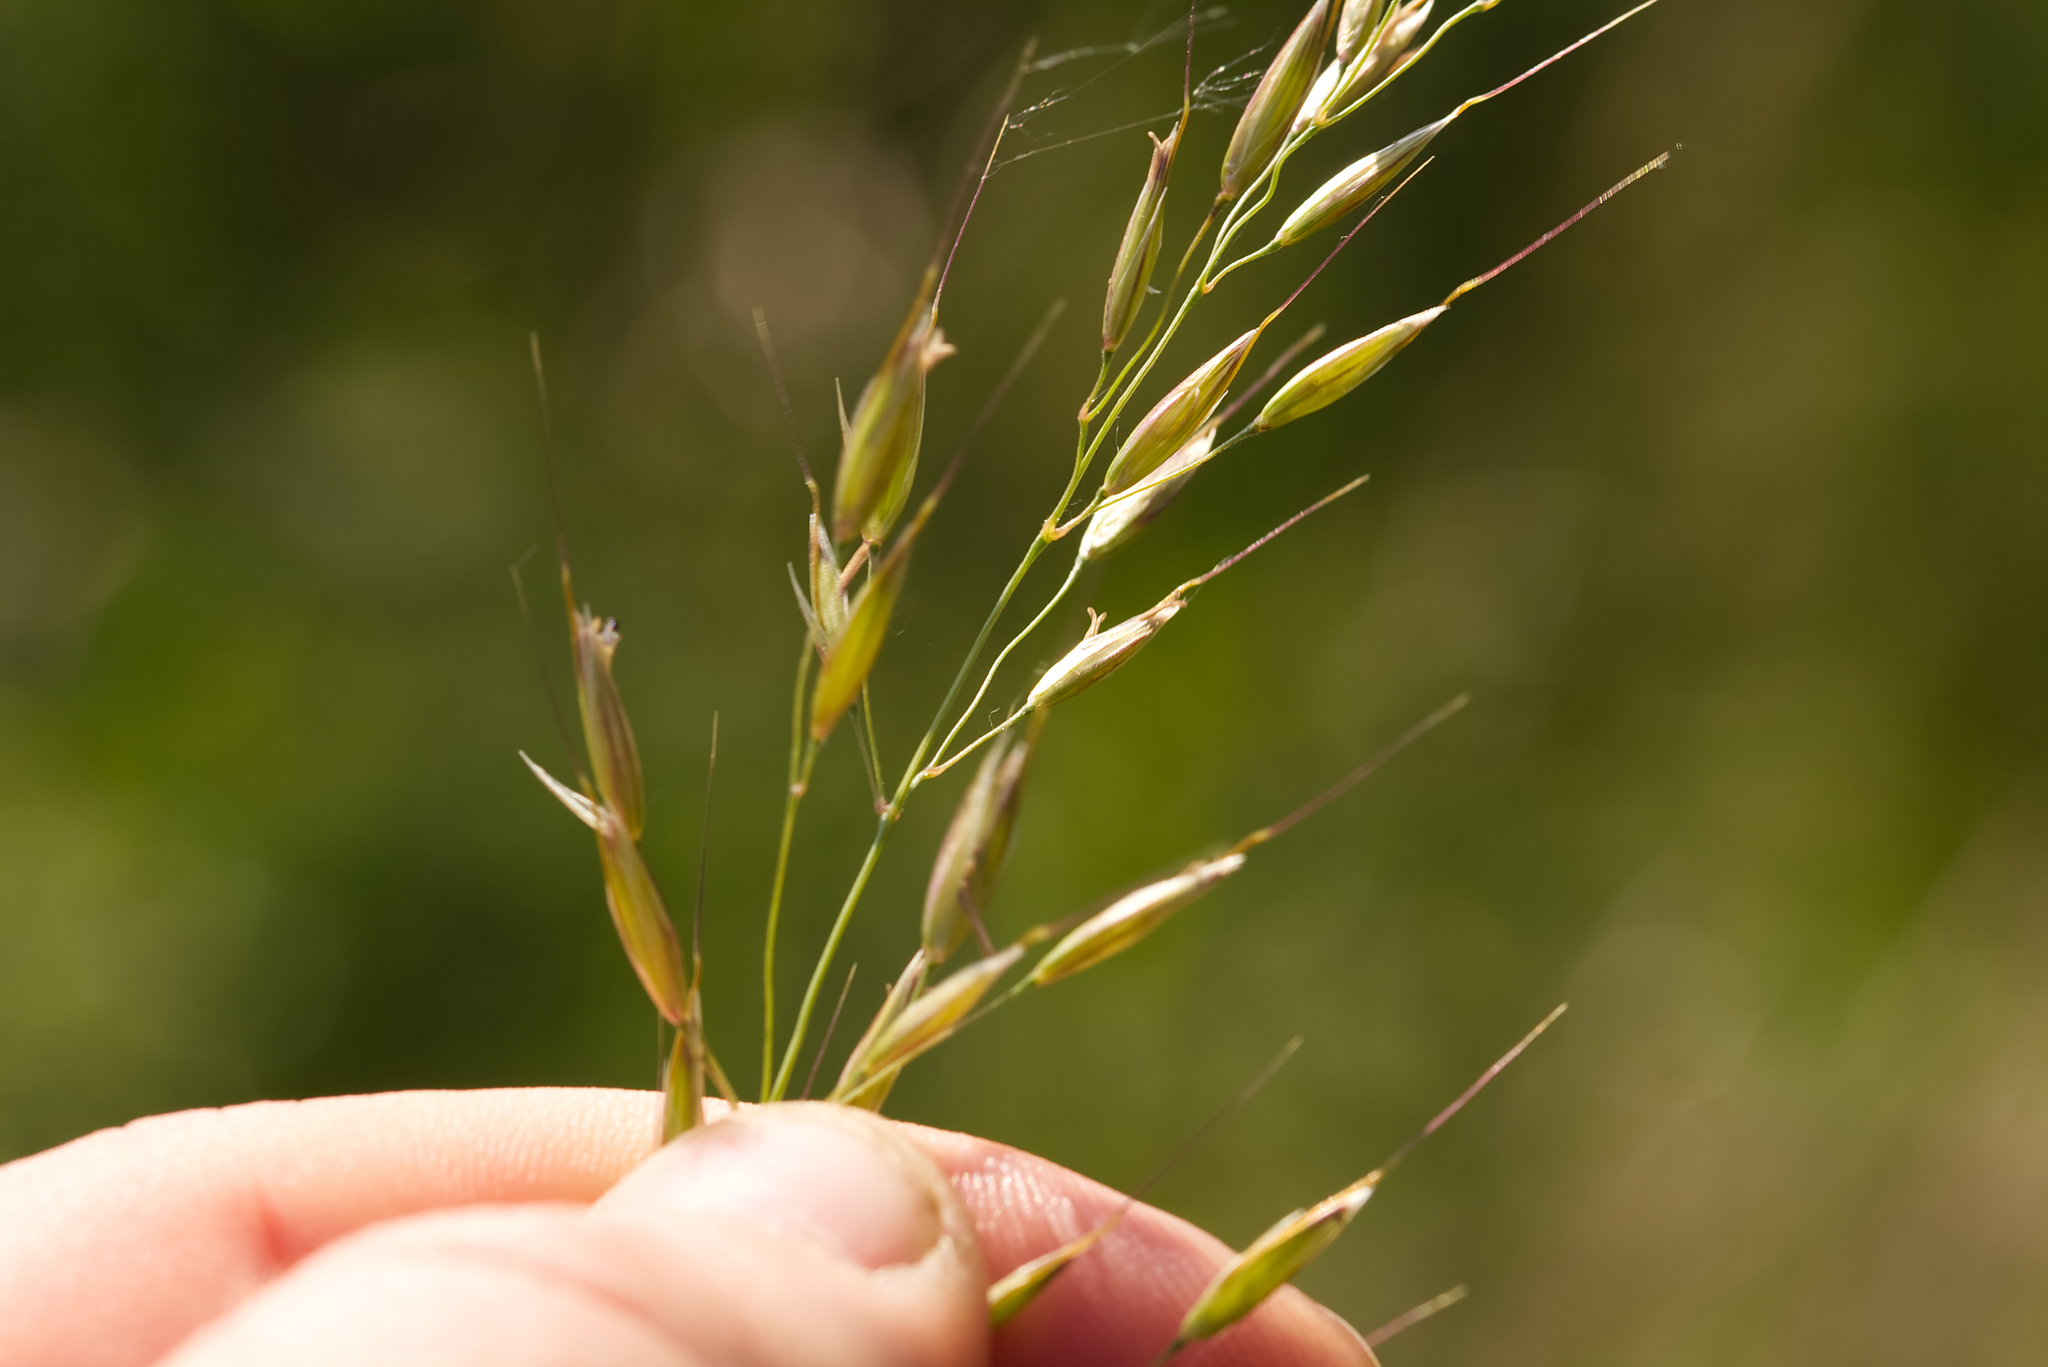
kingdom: Plantae
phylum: Tracheophyta
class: Liliopsida
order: Poales
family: Poaceae
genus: Arrhenatherum
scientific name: Arrhenatherum elatius
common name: Tall oatgrass
